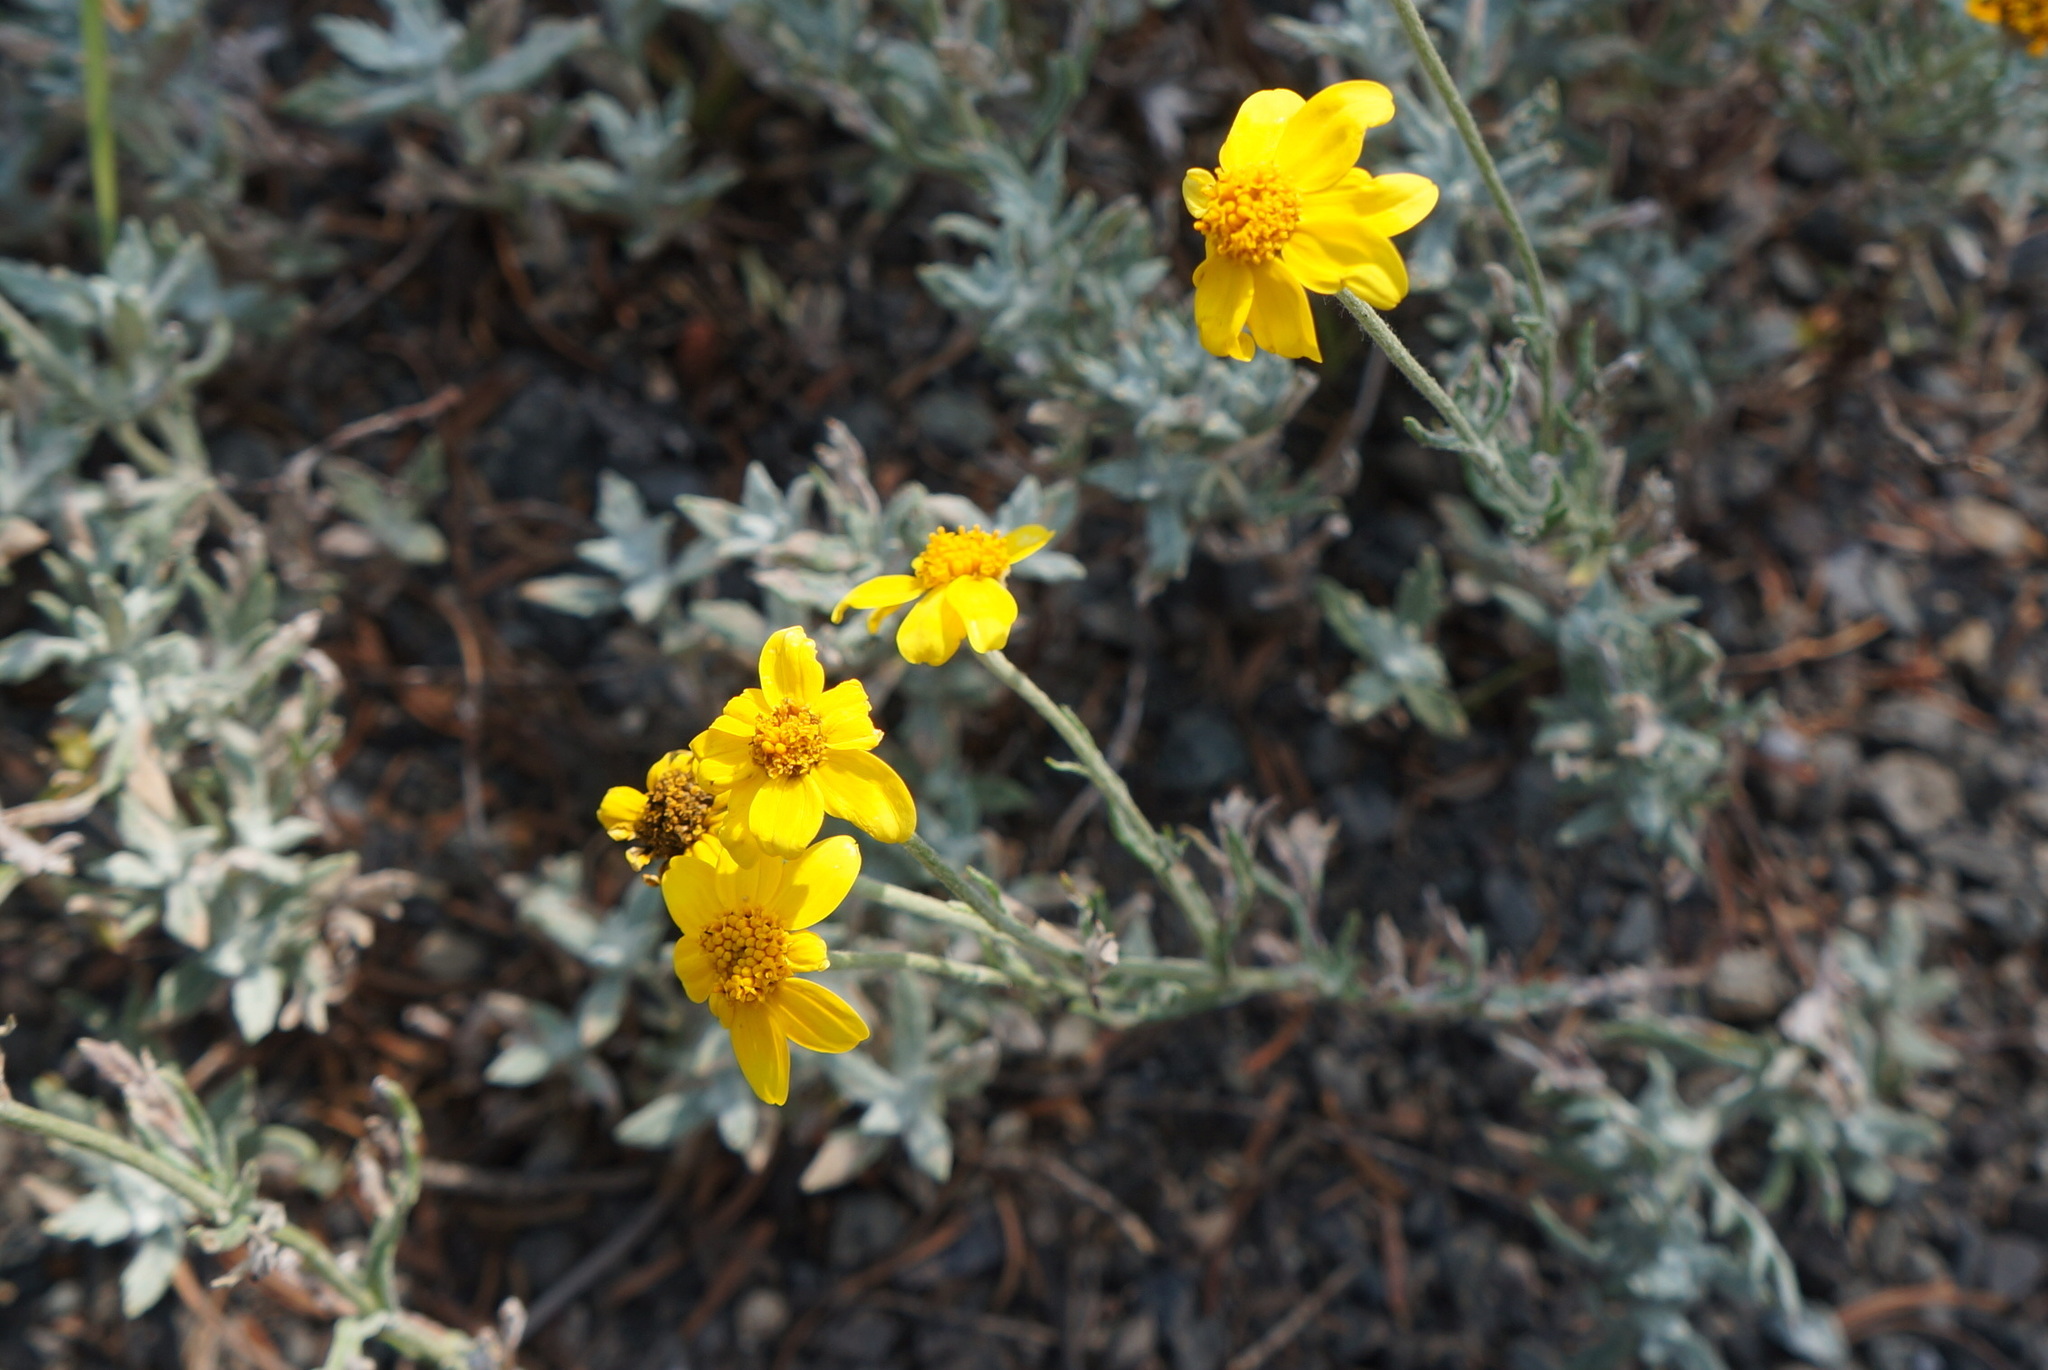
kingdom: Plantae
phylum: Tracheophyta
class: Magnoliopsida
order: Asterales
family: Asteraceae
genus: Eriophyllum
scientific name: Eriophyllum lanatum
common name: Common woolly-sunflower
